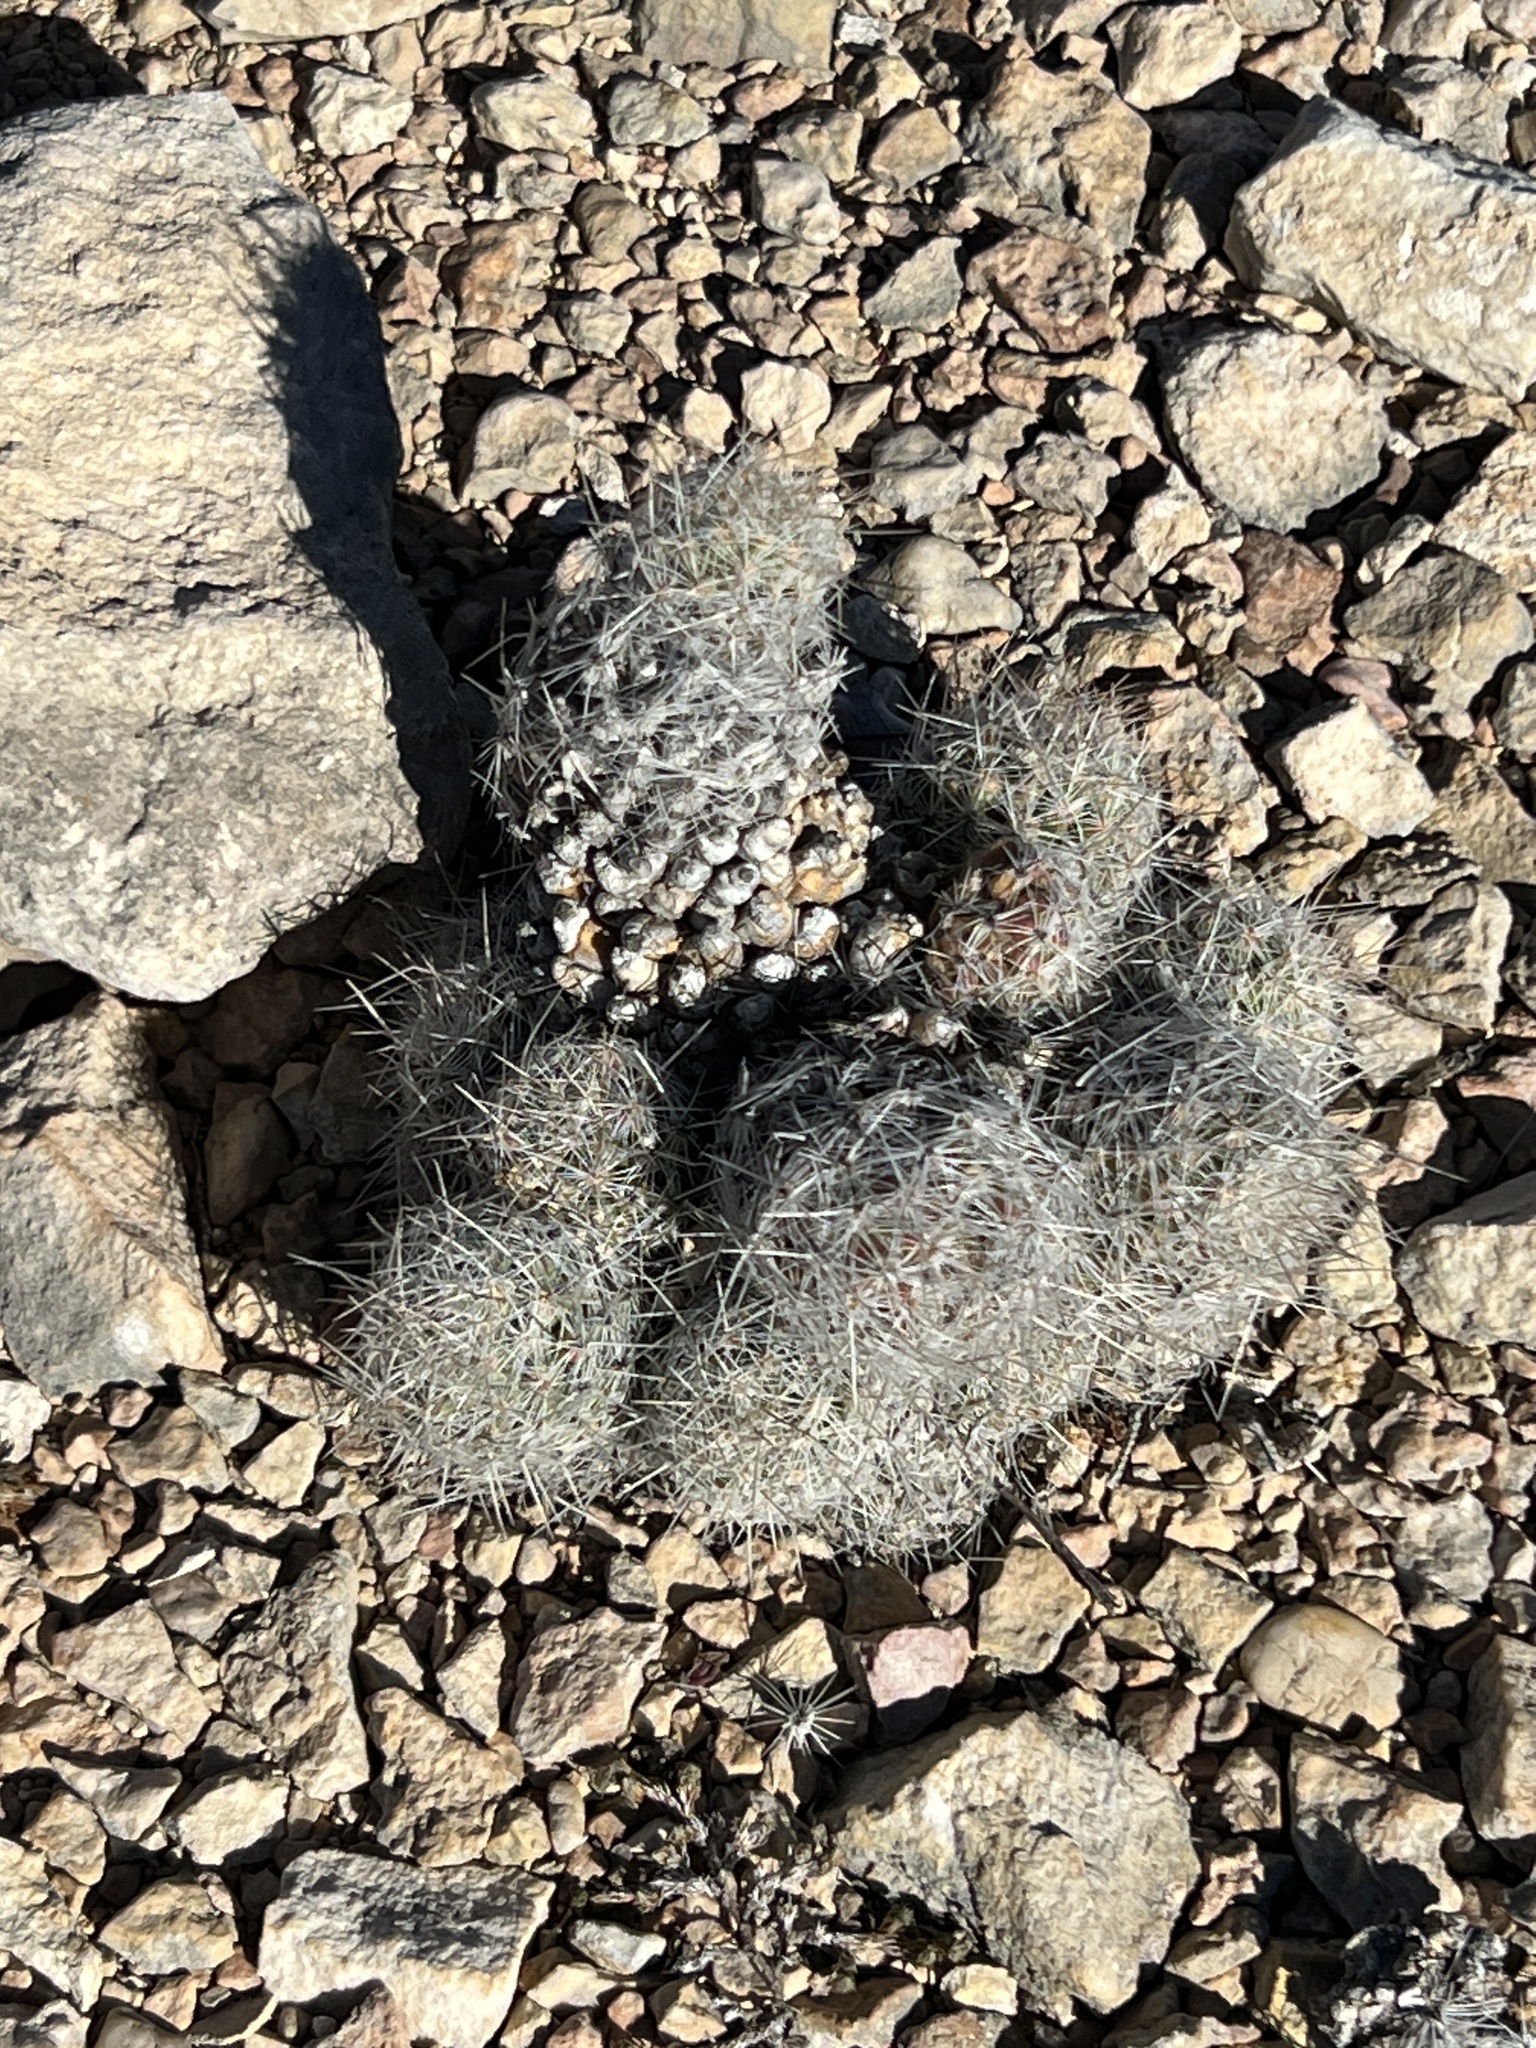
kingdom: Plantae
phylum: Tracheophyta
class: Magnoliopsida
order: Caryophyllales
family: Cactaceae
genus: Pelecyphora
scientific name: Pelecyphora tuberculosa
